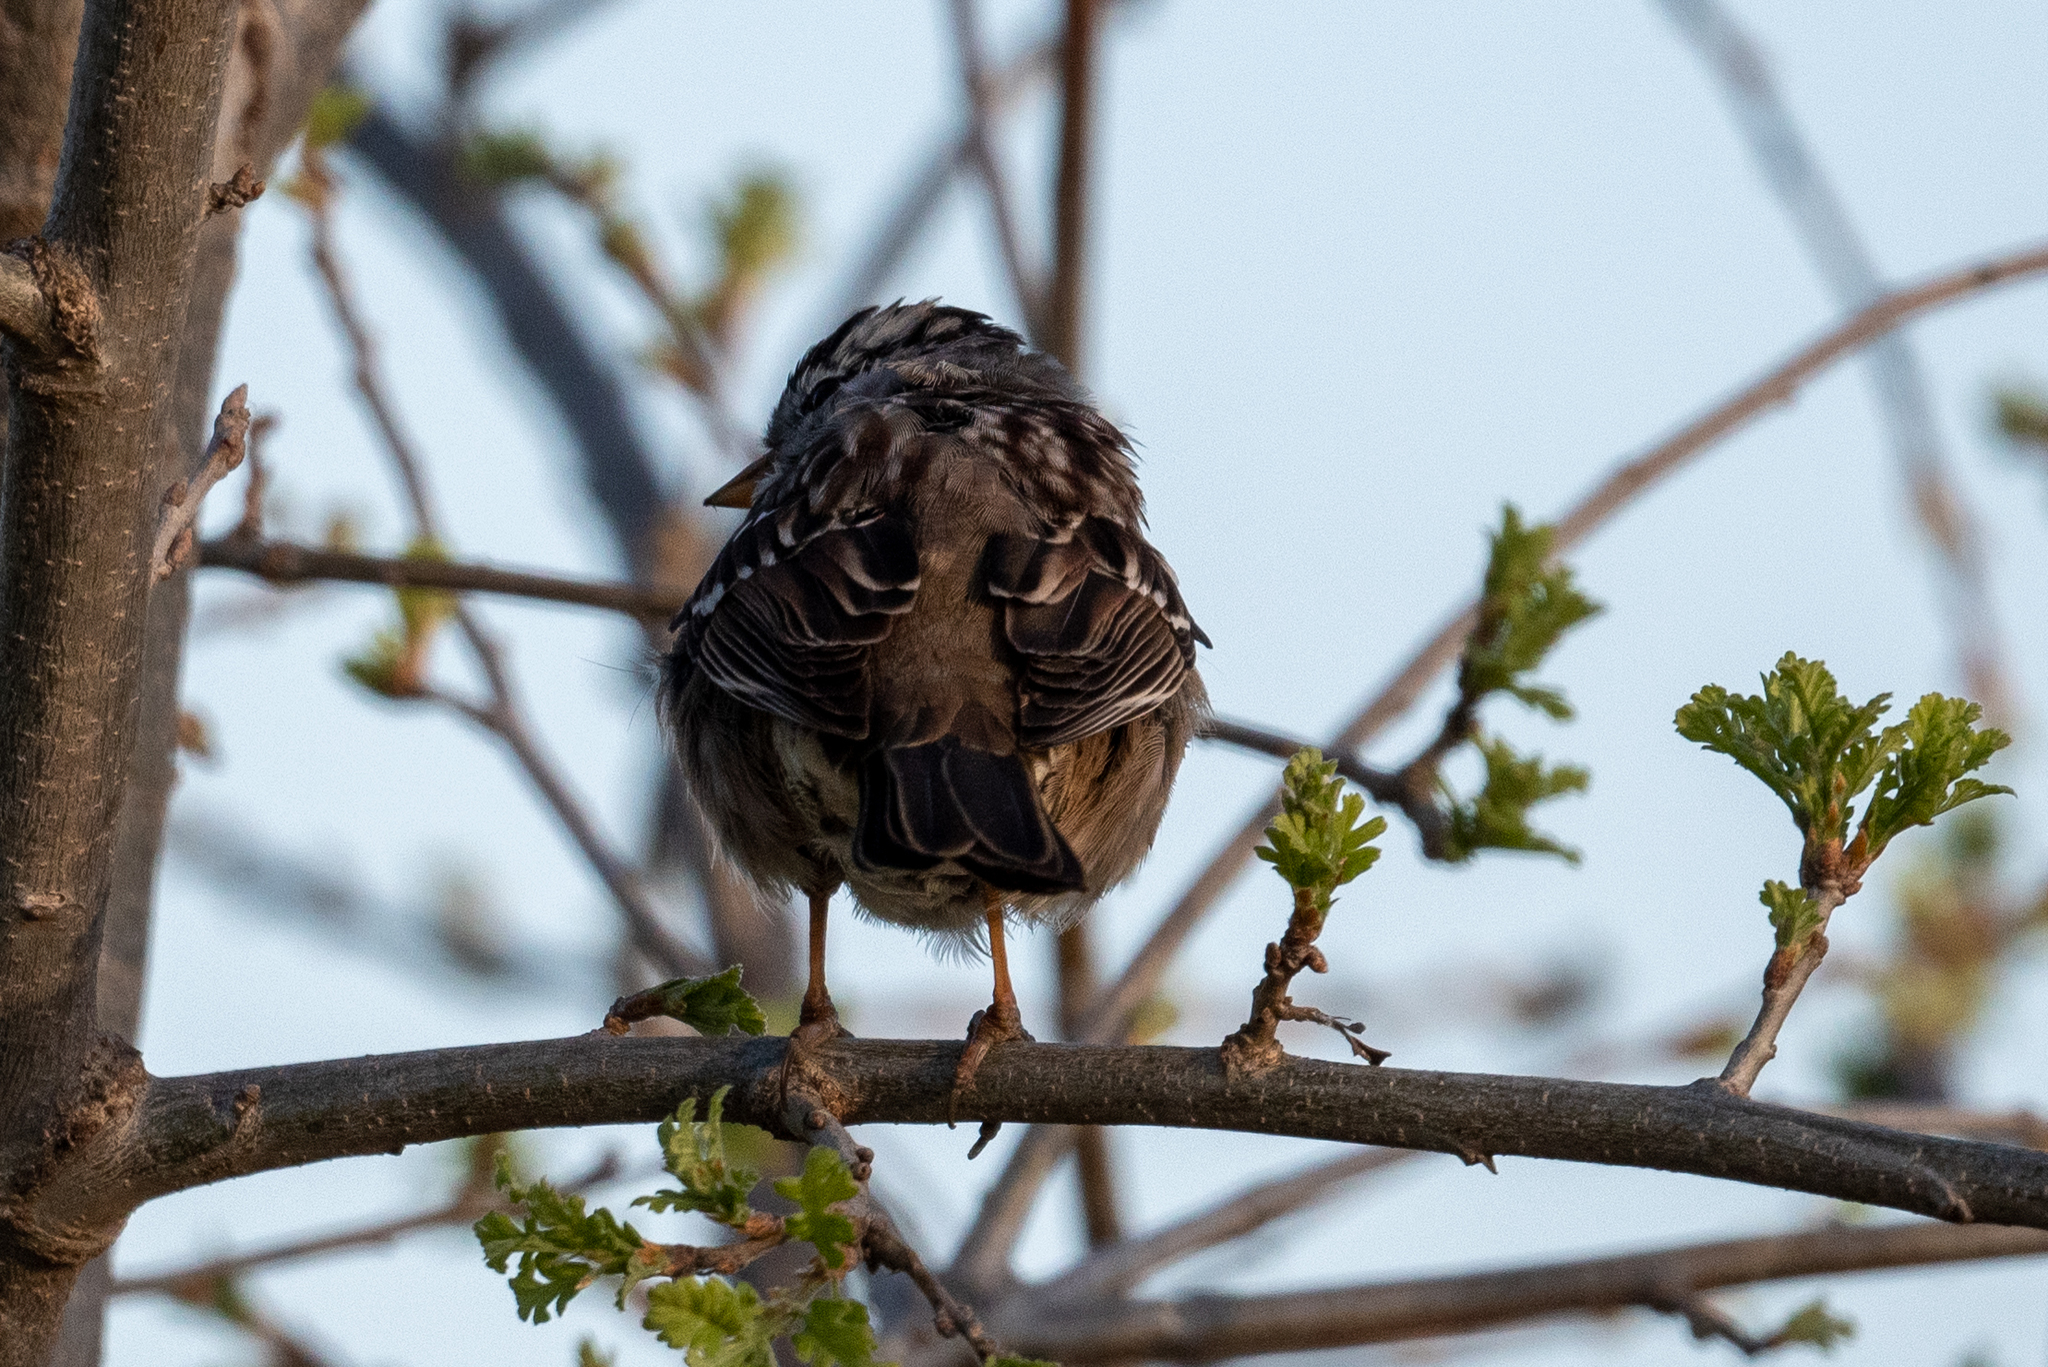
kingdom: Animalia
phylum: Chordata
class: Aves
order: Passeriformes
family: Passerellidae
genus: Zonotrichia
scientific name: Zonotrichia leucophrys
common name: White-crowned sparrow
